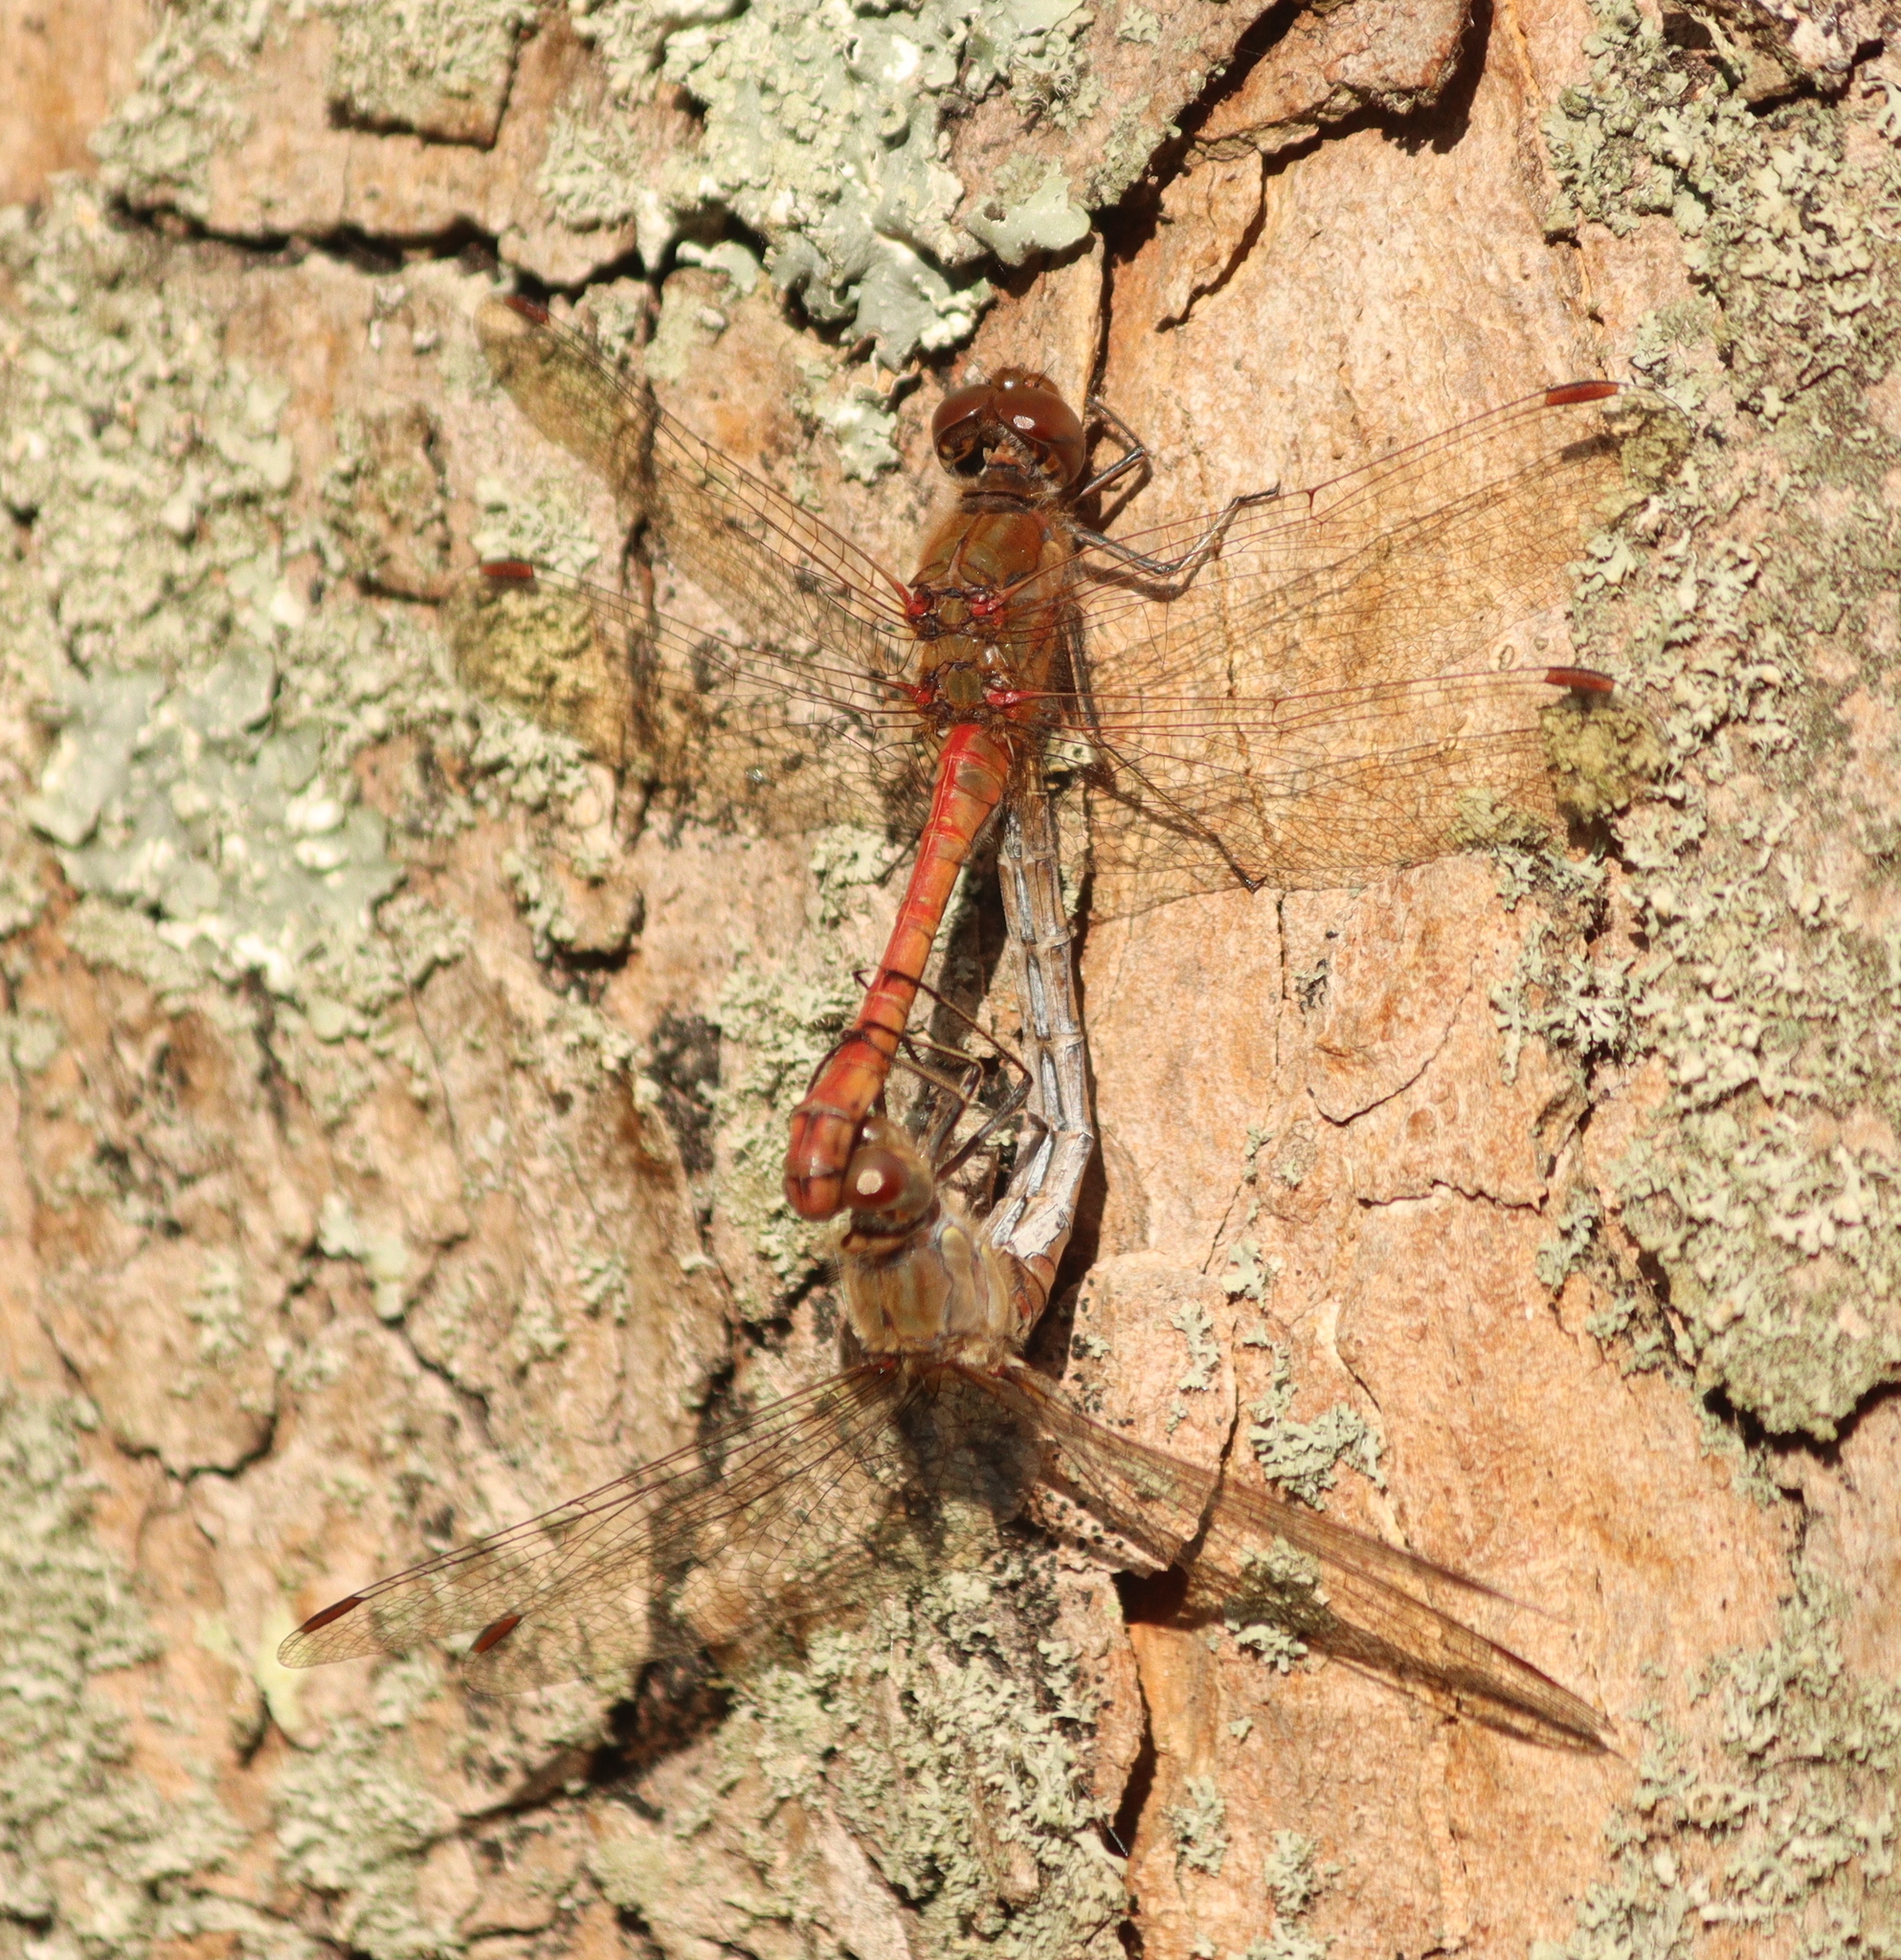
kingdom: Animalia
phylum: Arthropoda
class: Insecta
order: Odonata
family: Libellulidae
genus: Sympetrum
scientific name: Sympetrum striolatum
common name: Common darter
